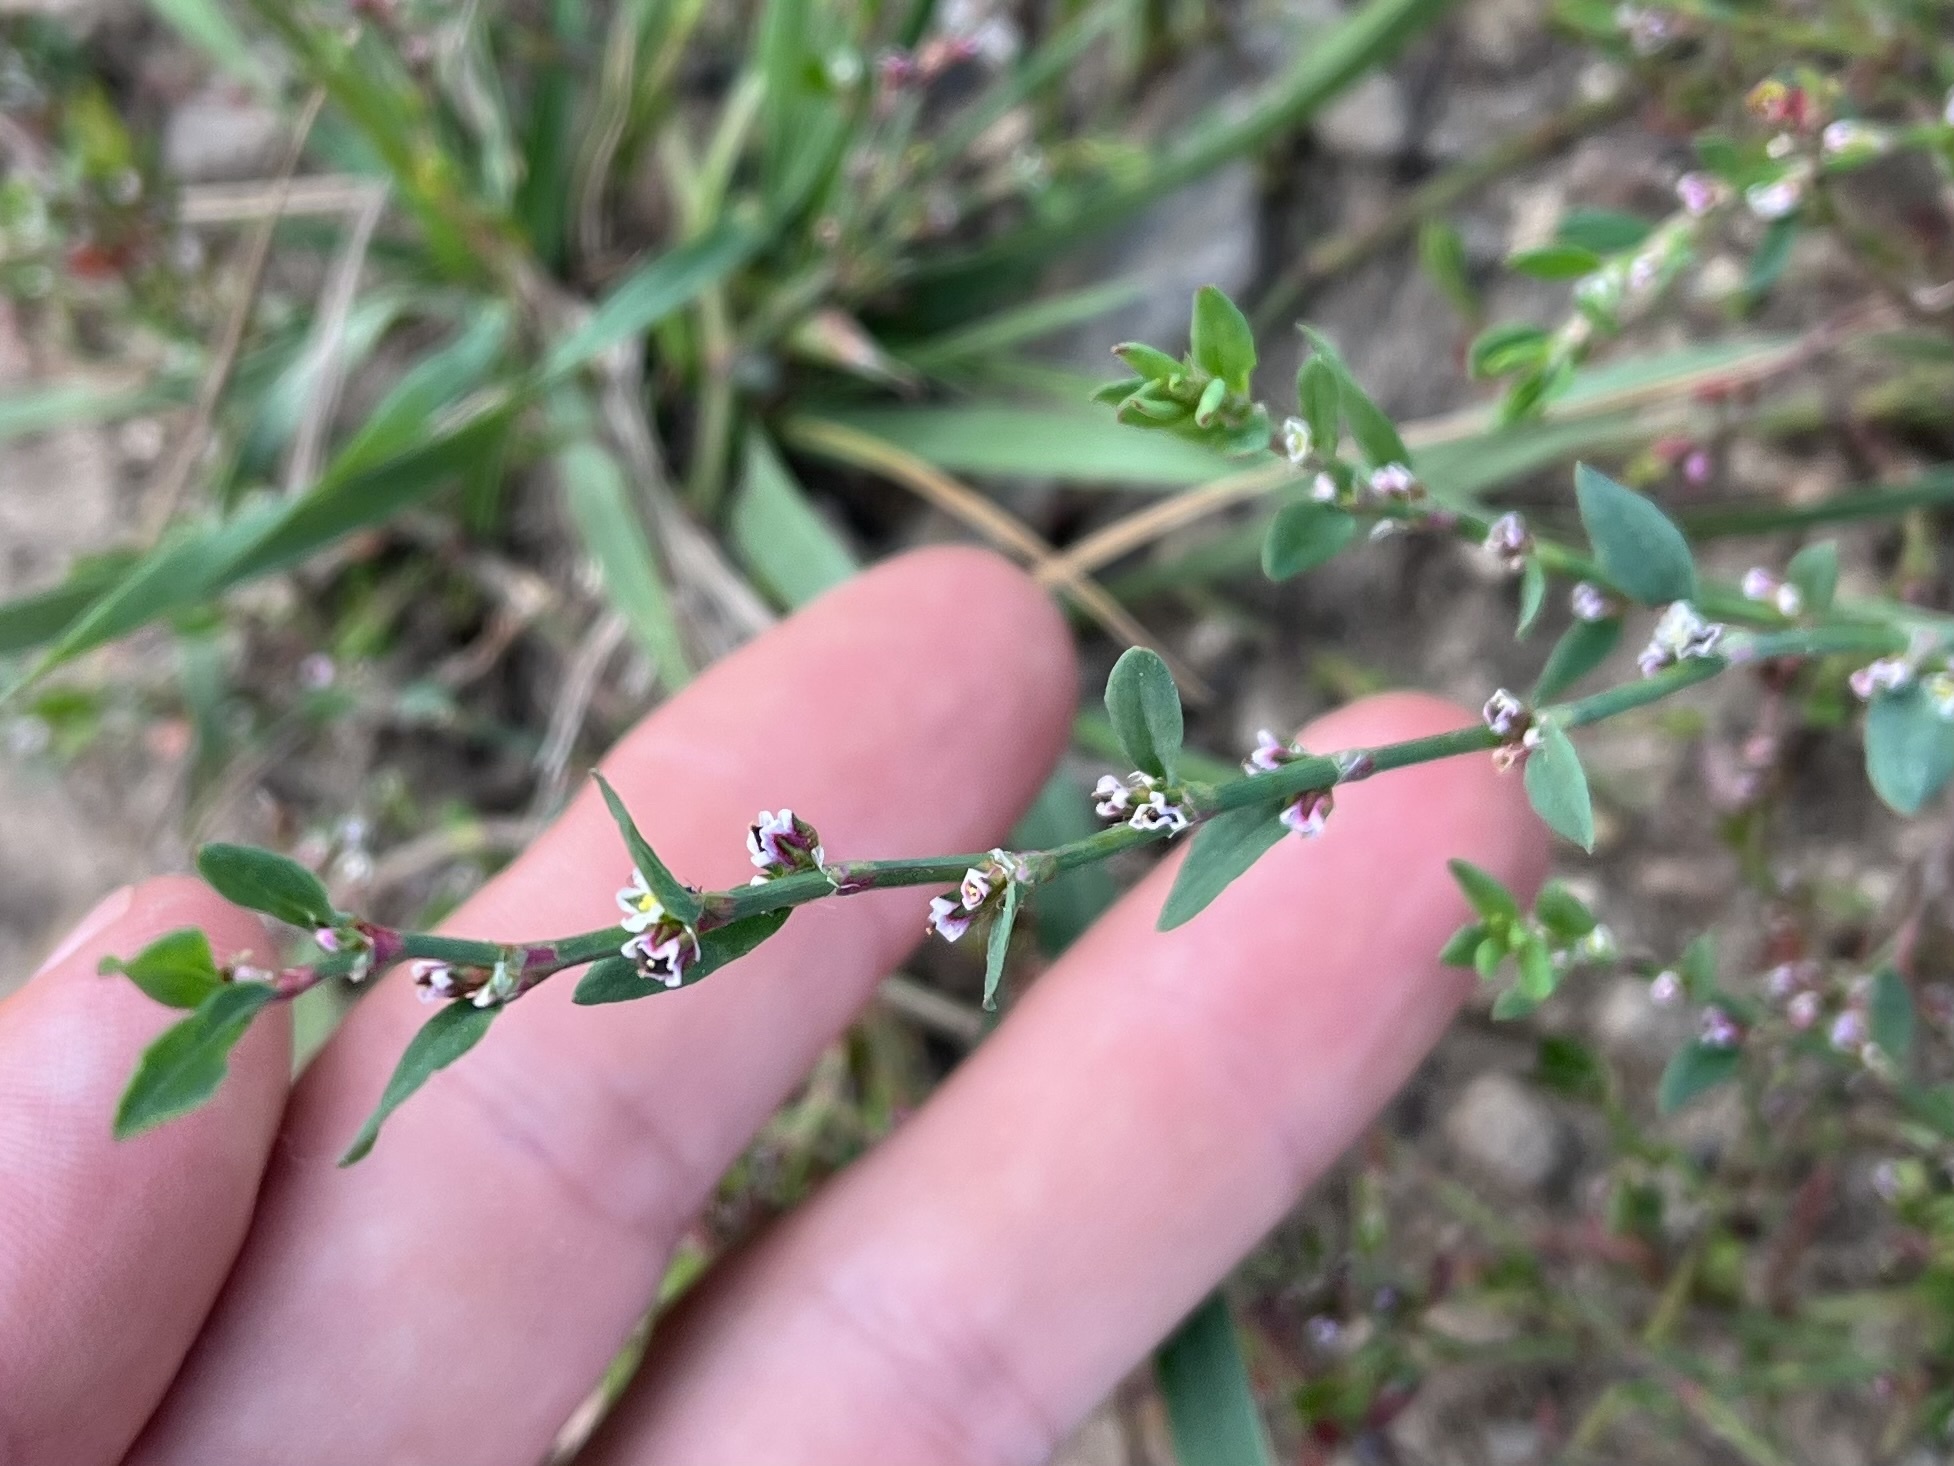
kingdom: Plantae
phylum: Tracheophyta
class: Magnoliopsida
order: Caryophyllales
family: Polygonaceae
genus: Polygonum
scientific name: Polygonum aviculare
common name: Prostrate knotweed
